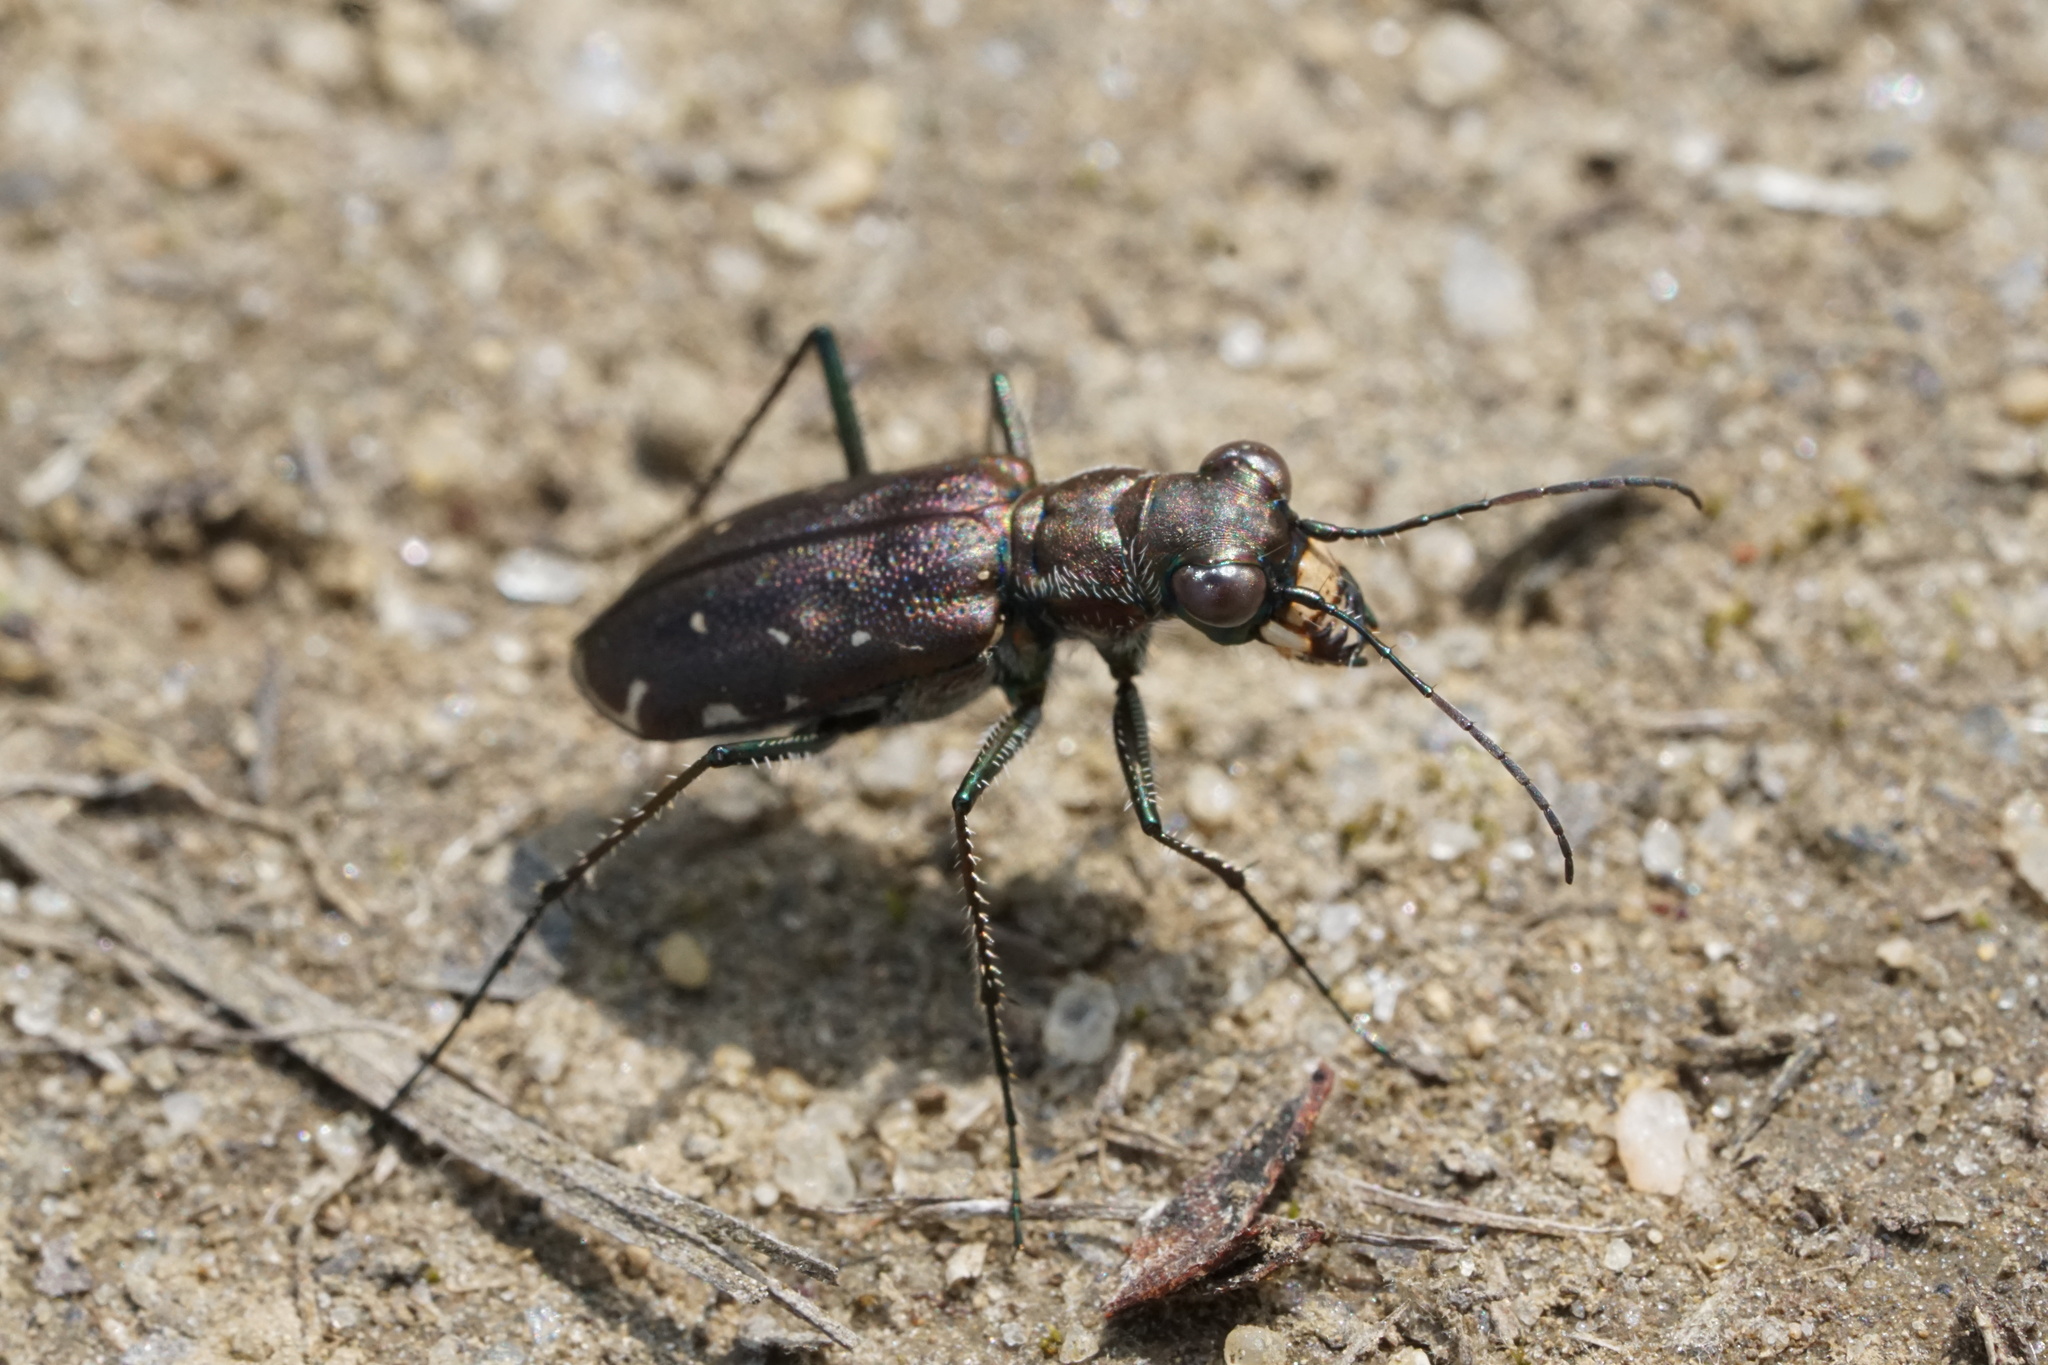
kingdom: Animalia
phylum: Arthropoda
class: Insecta
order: Coleoptera
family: Carabidae
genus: Cicindela
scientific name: Cicindela punctulata
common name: Punctured tiger beetle
